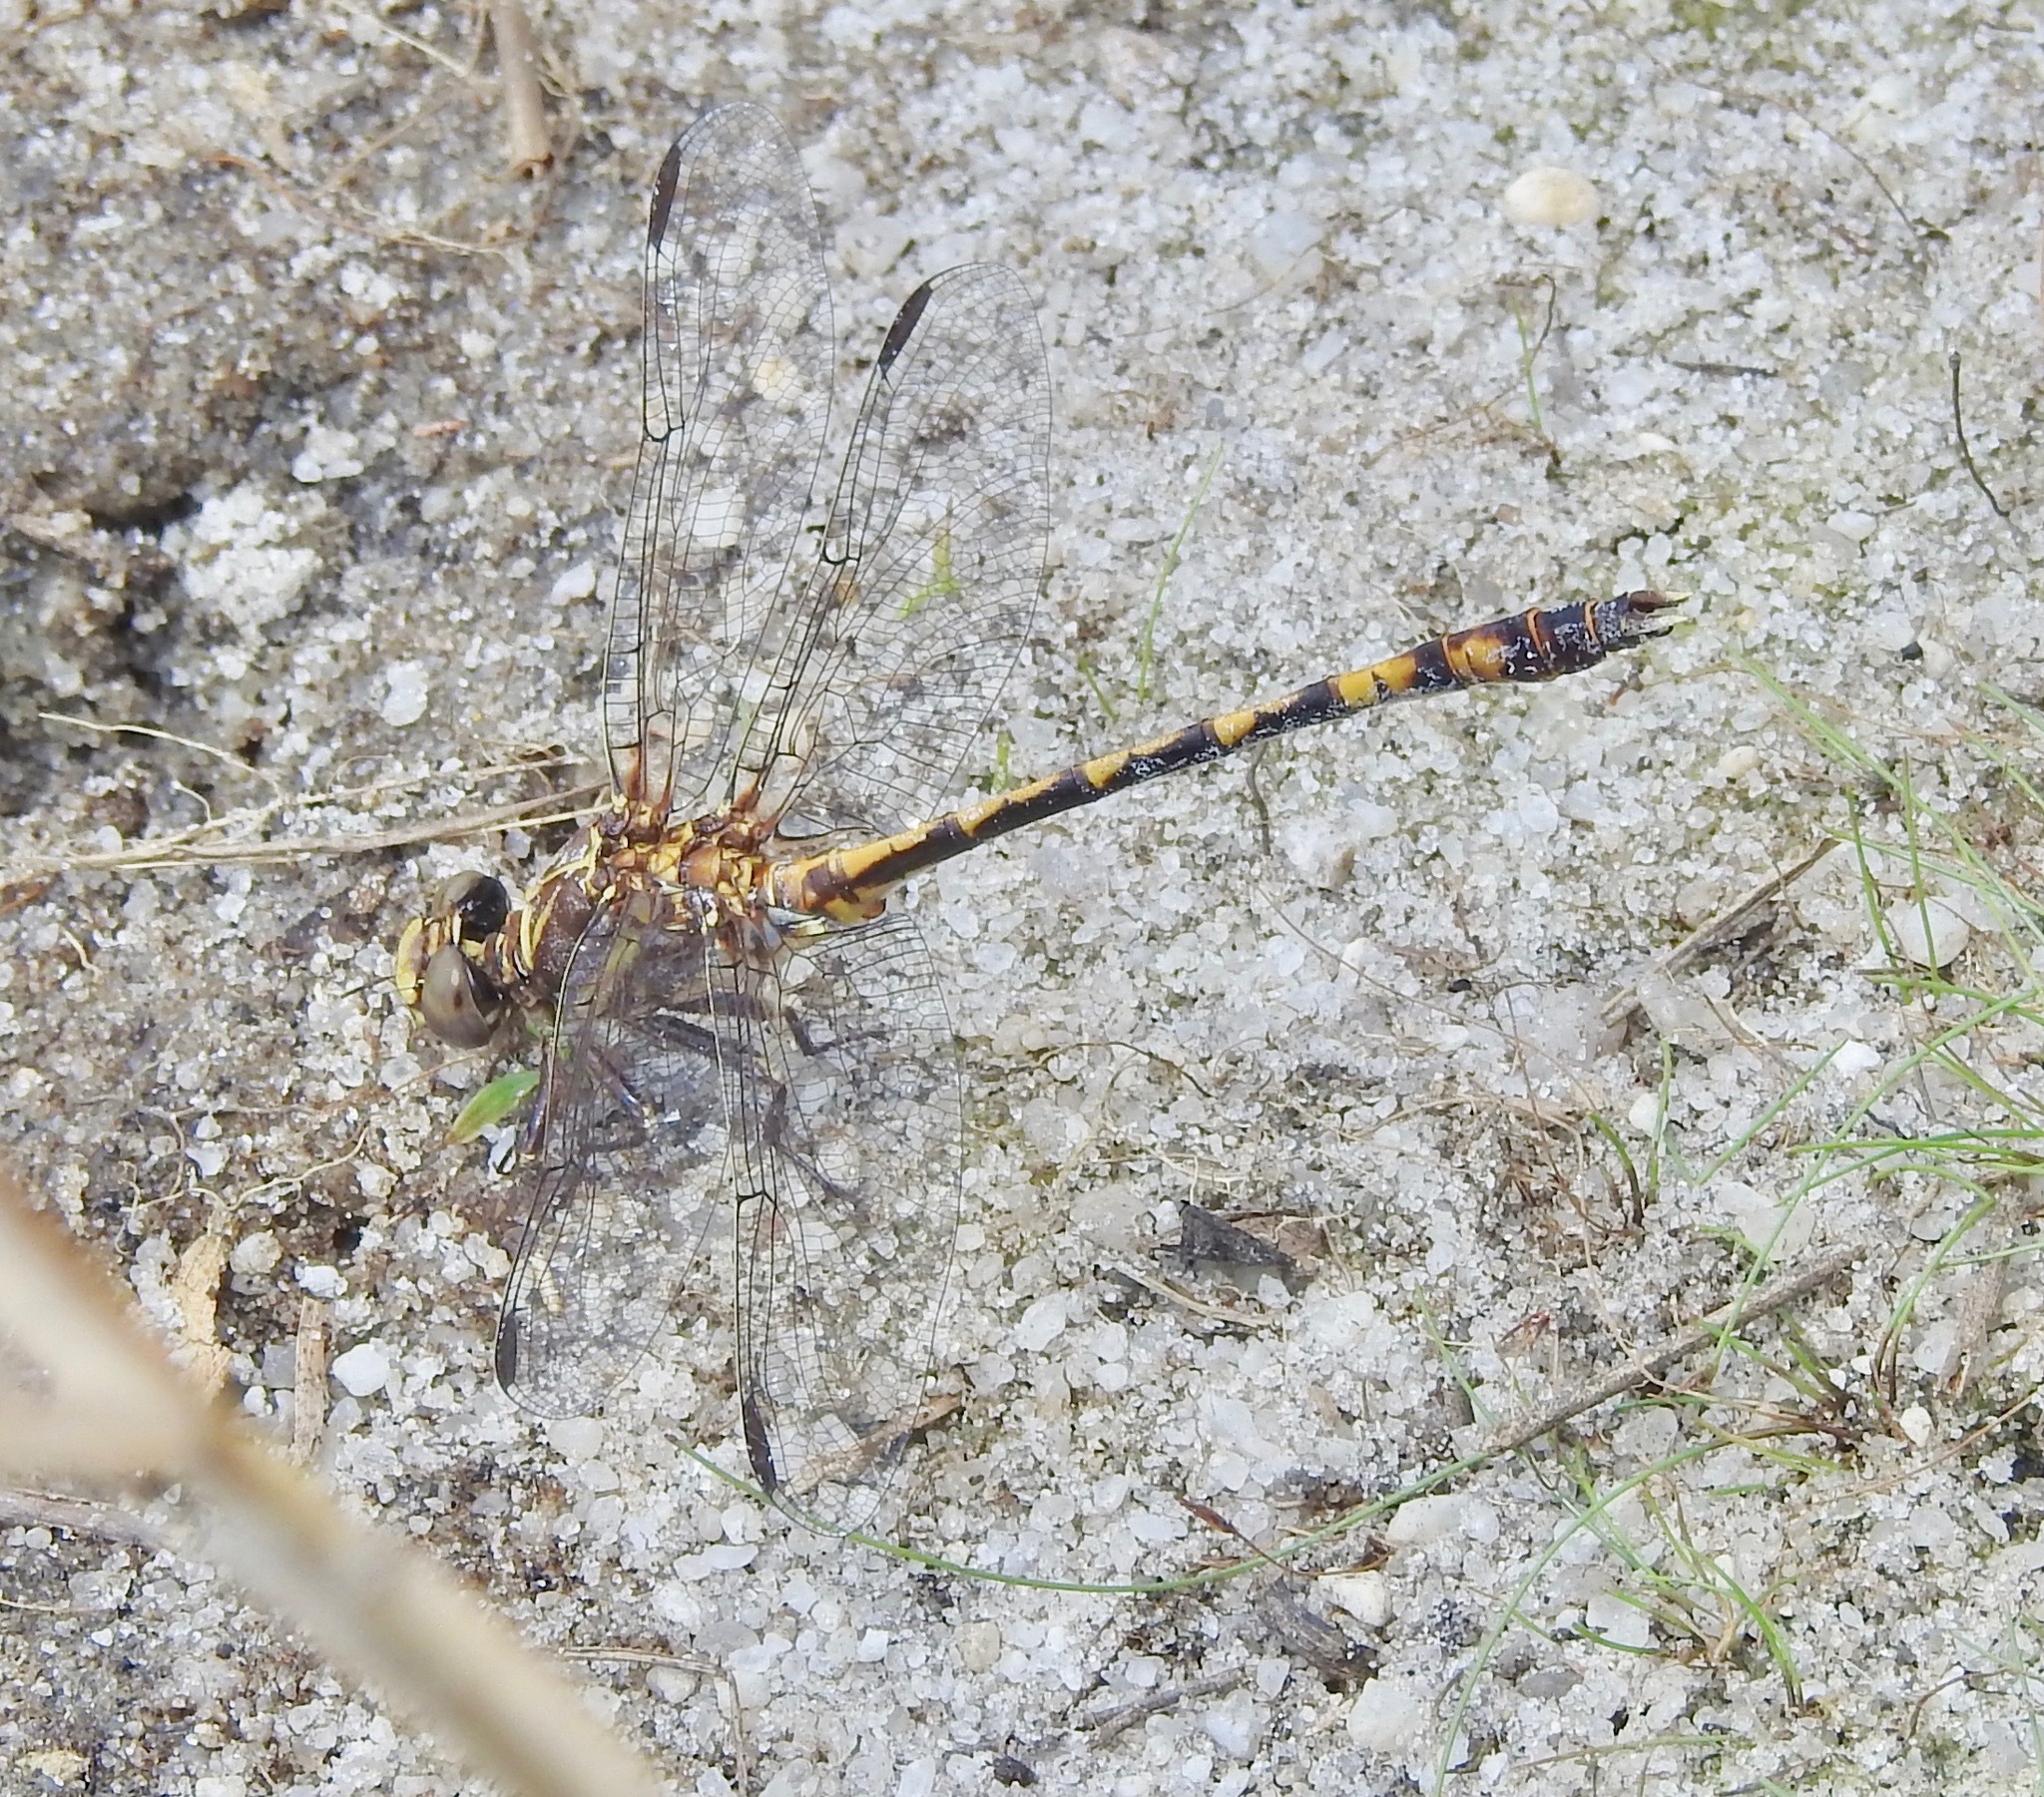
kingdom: Animalia
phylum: Arthropoda
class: Insecta
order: Odonata
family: Gomphidae
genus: Progomphus
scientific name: Progomphus alachuensis
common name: Tawny sanddragon
